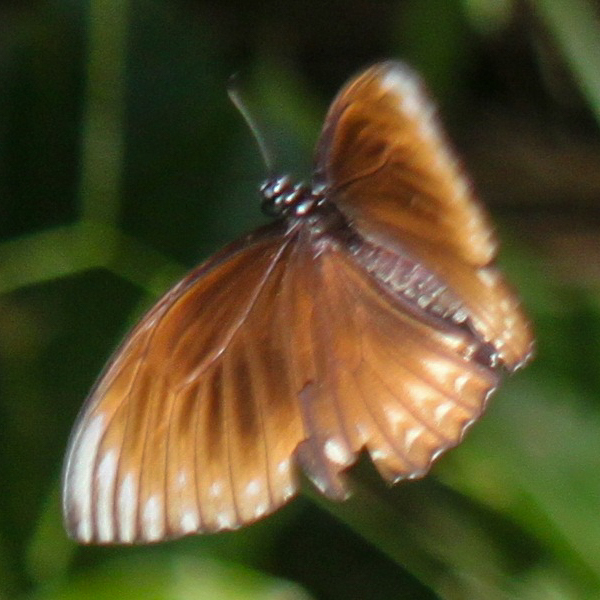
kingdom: Animalia
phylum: Arthropoda
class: Insecta
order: Lepidoptera
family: Papilionidae
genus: Chilasa
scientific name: Chilasa clytia
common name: Common mime
